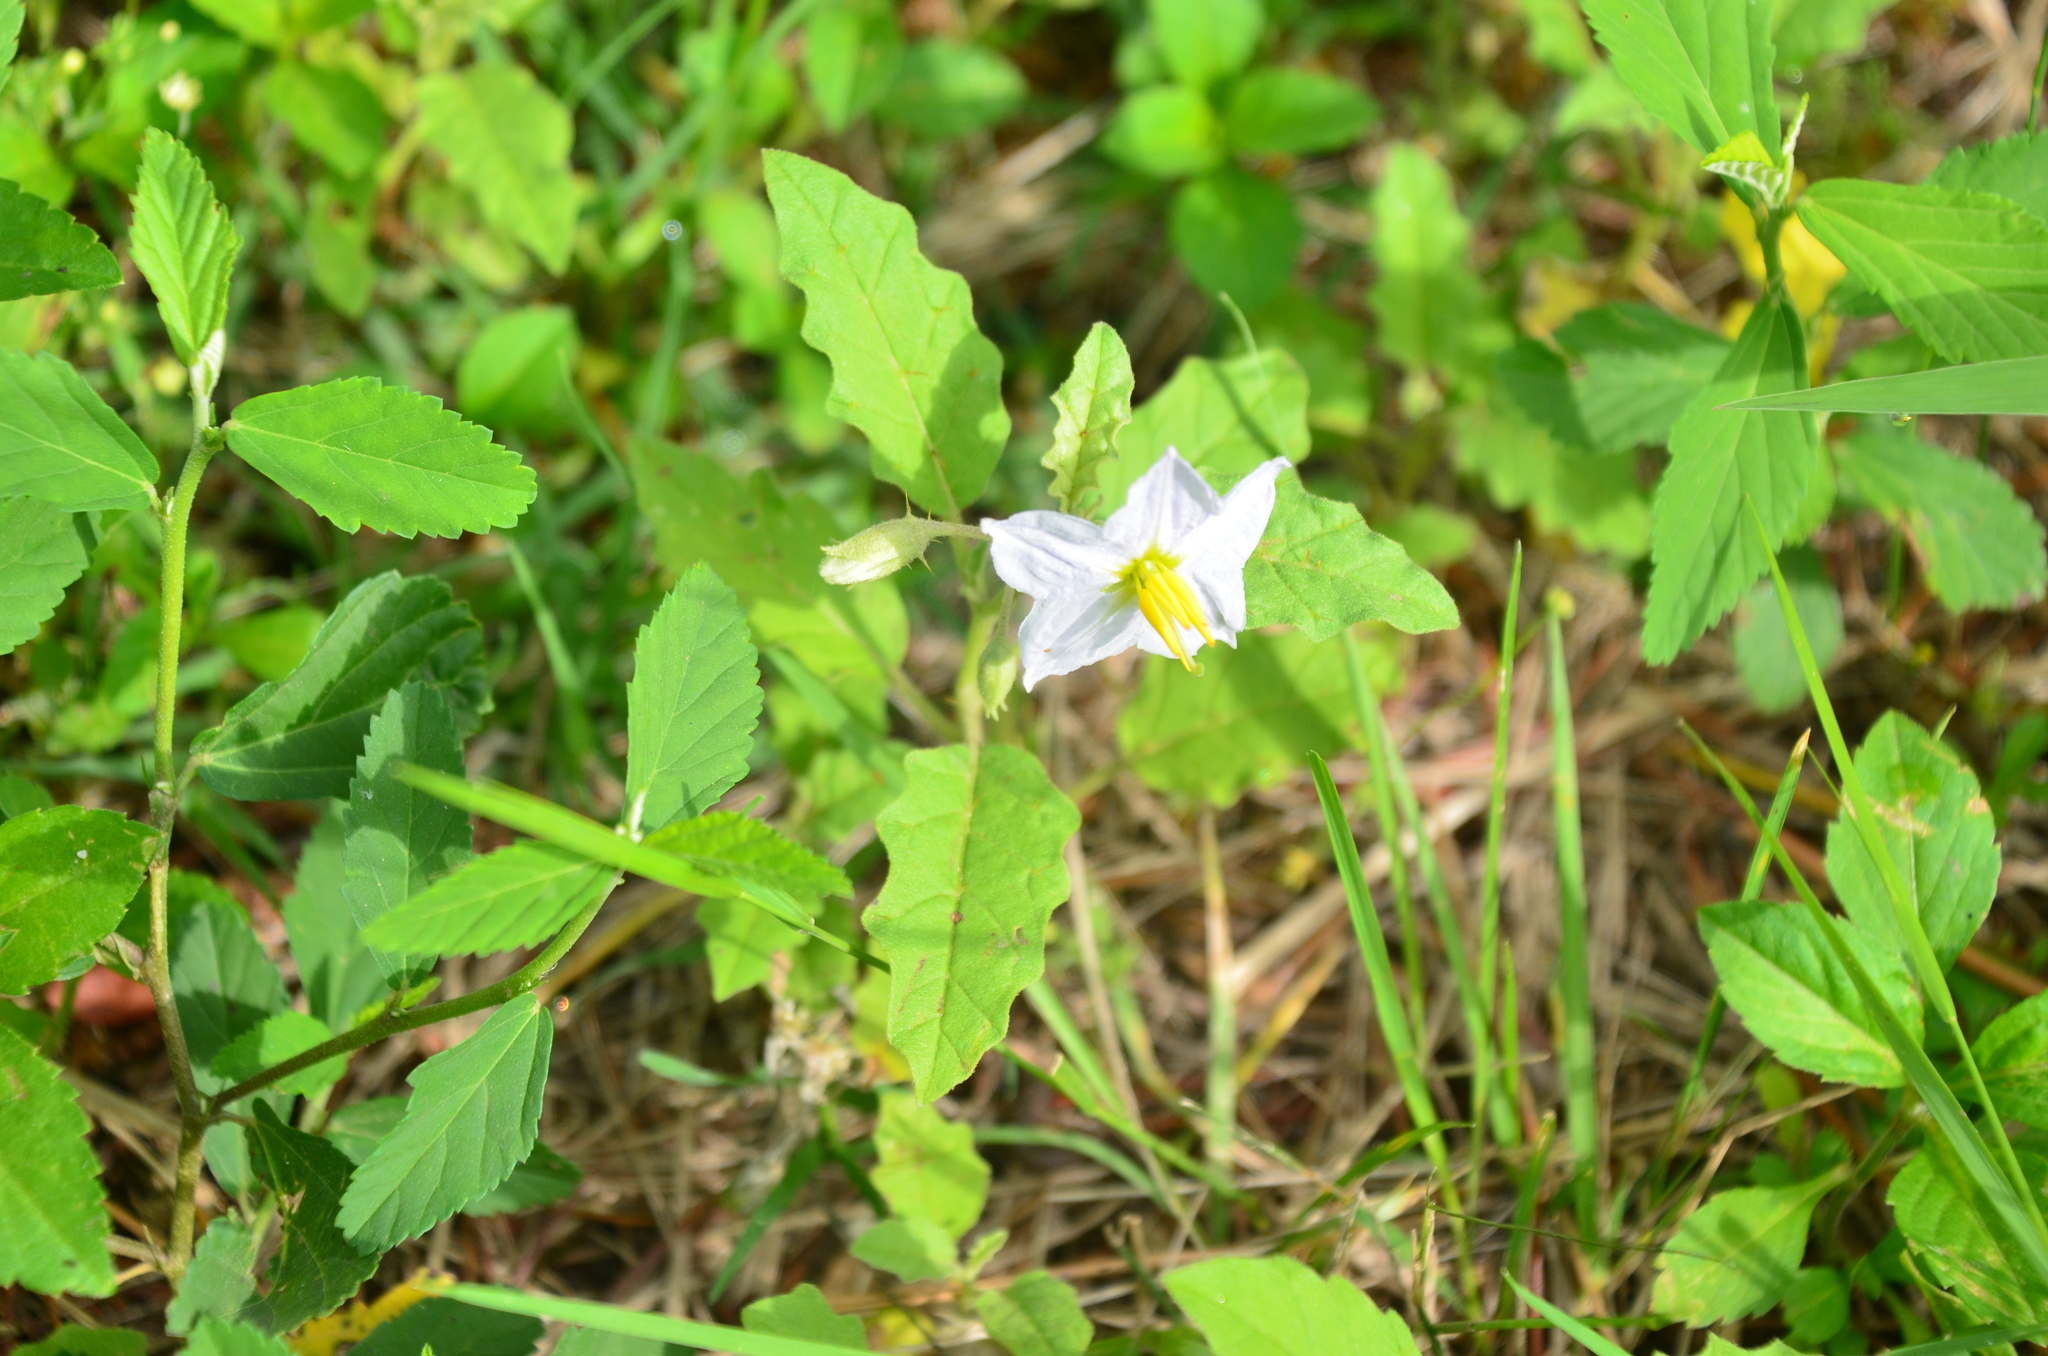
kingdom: Plantae
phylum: Tracheophyta
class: Magnoliopsida
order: Solanales
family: Solanaceae
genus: Solanum
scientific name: Solanum juvenale
